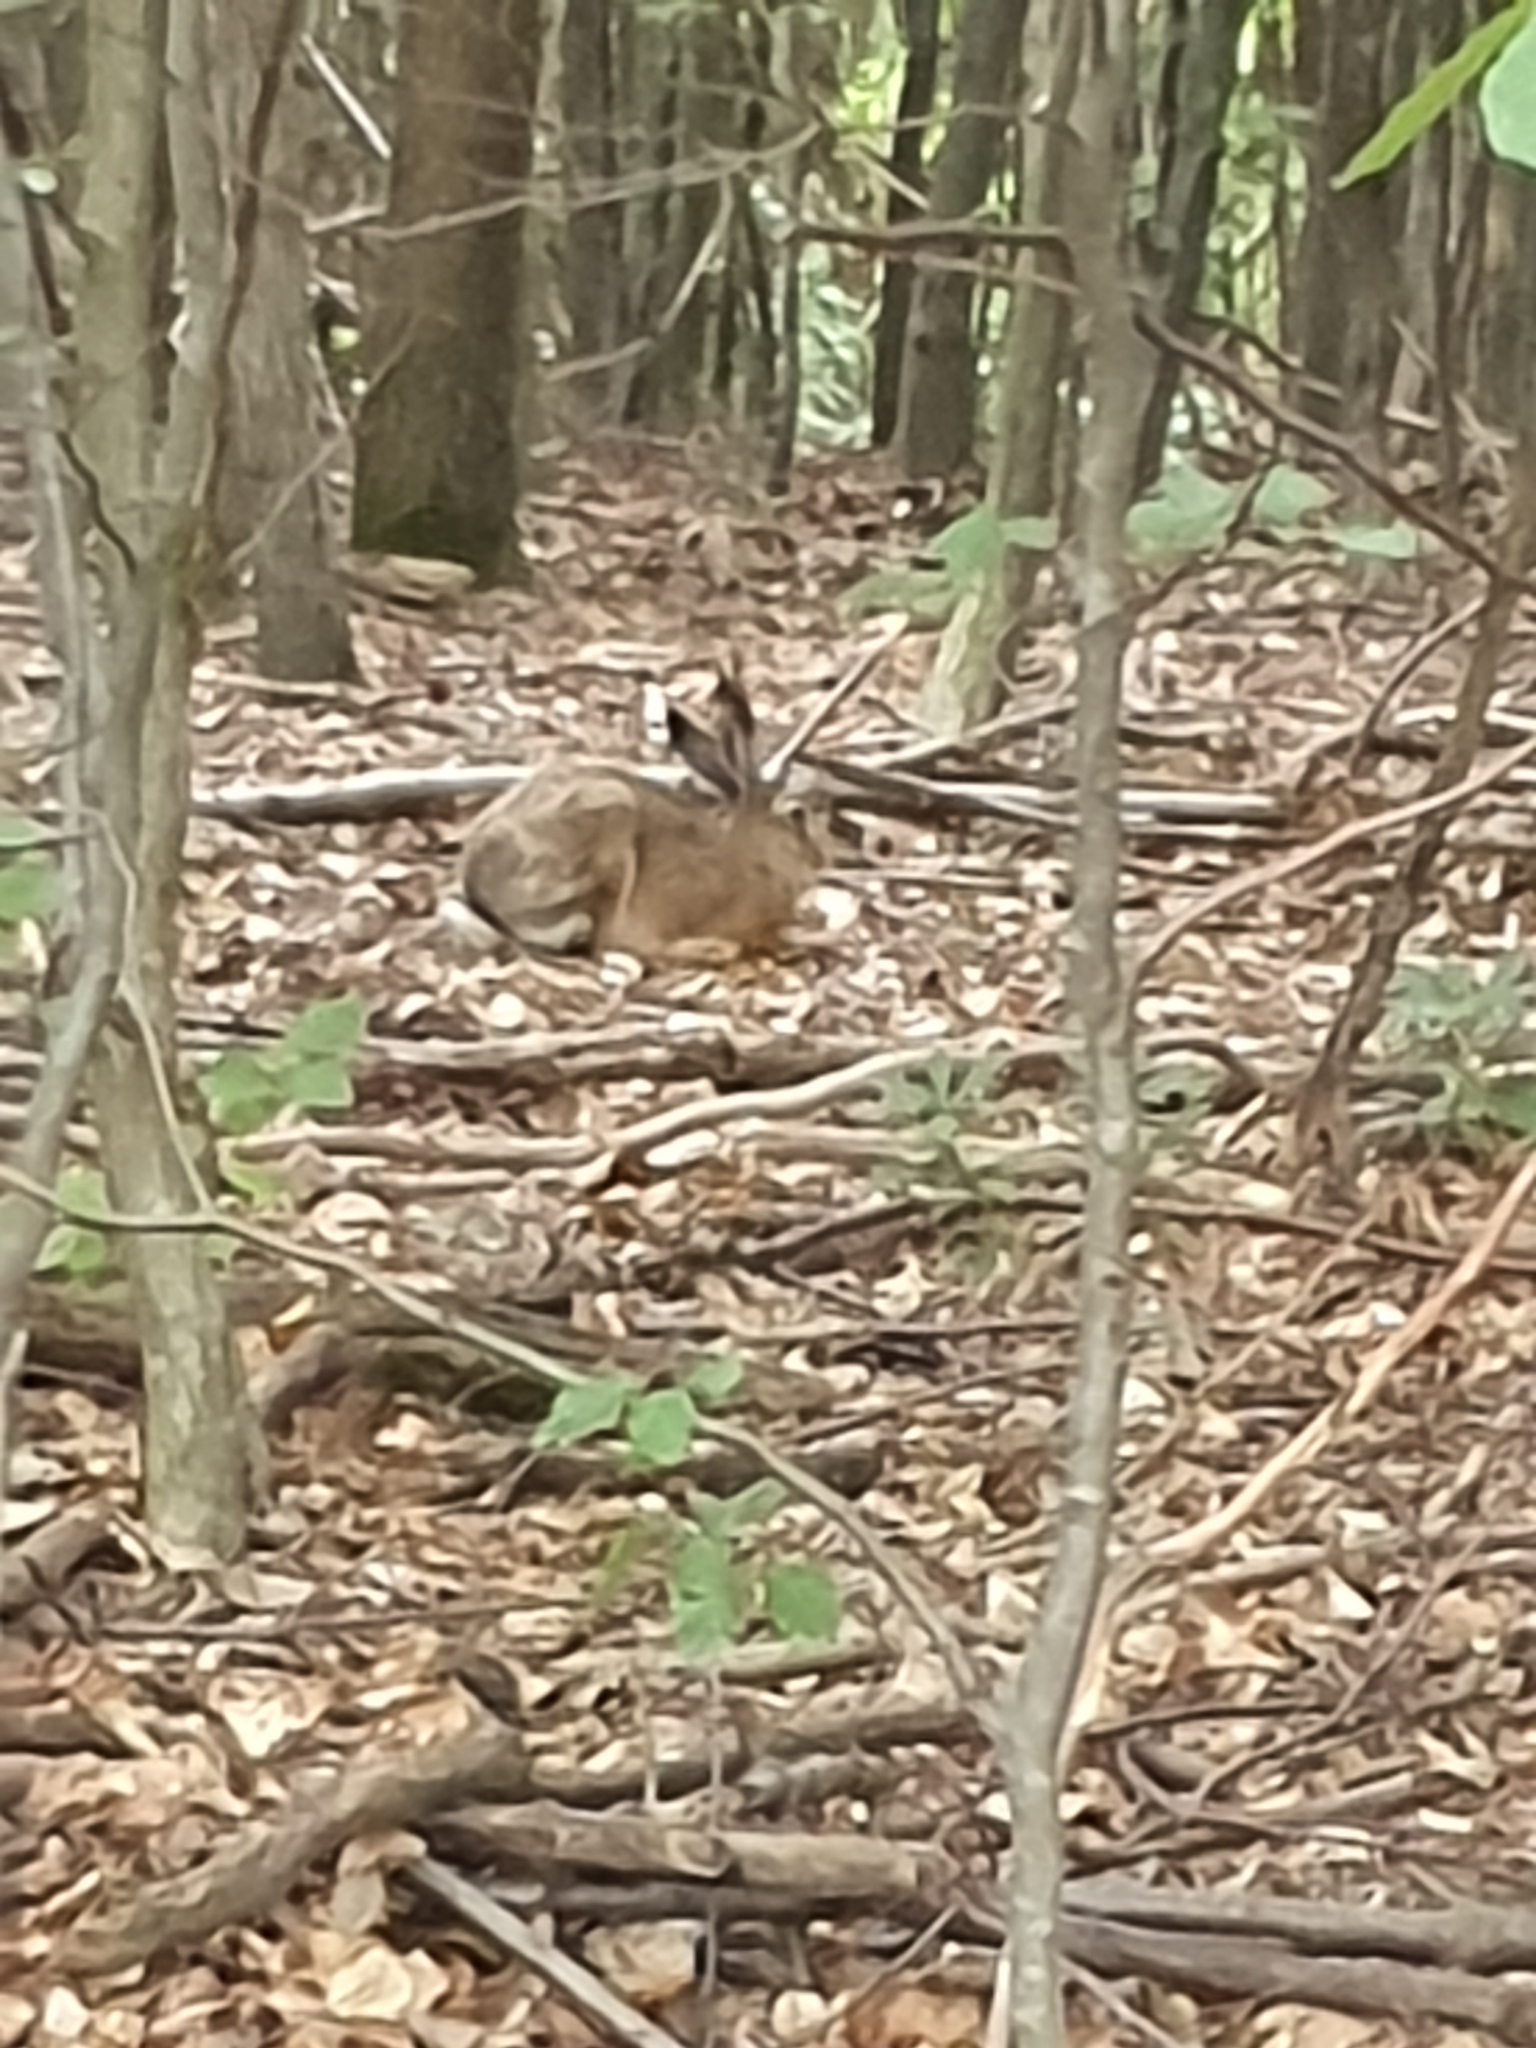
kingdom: Animalia
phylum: Chordata
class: Mammalia
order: Lagomorpha
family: Leporidae
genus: Lepus
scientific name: Lepus europaeus
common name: European hare
